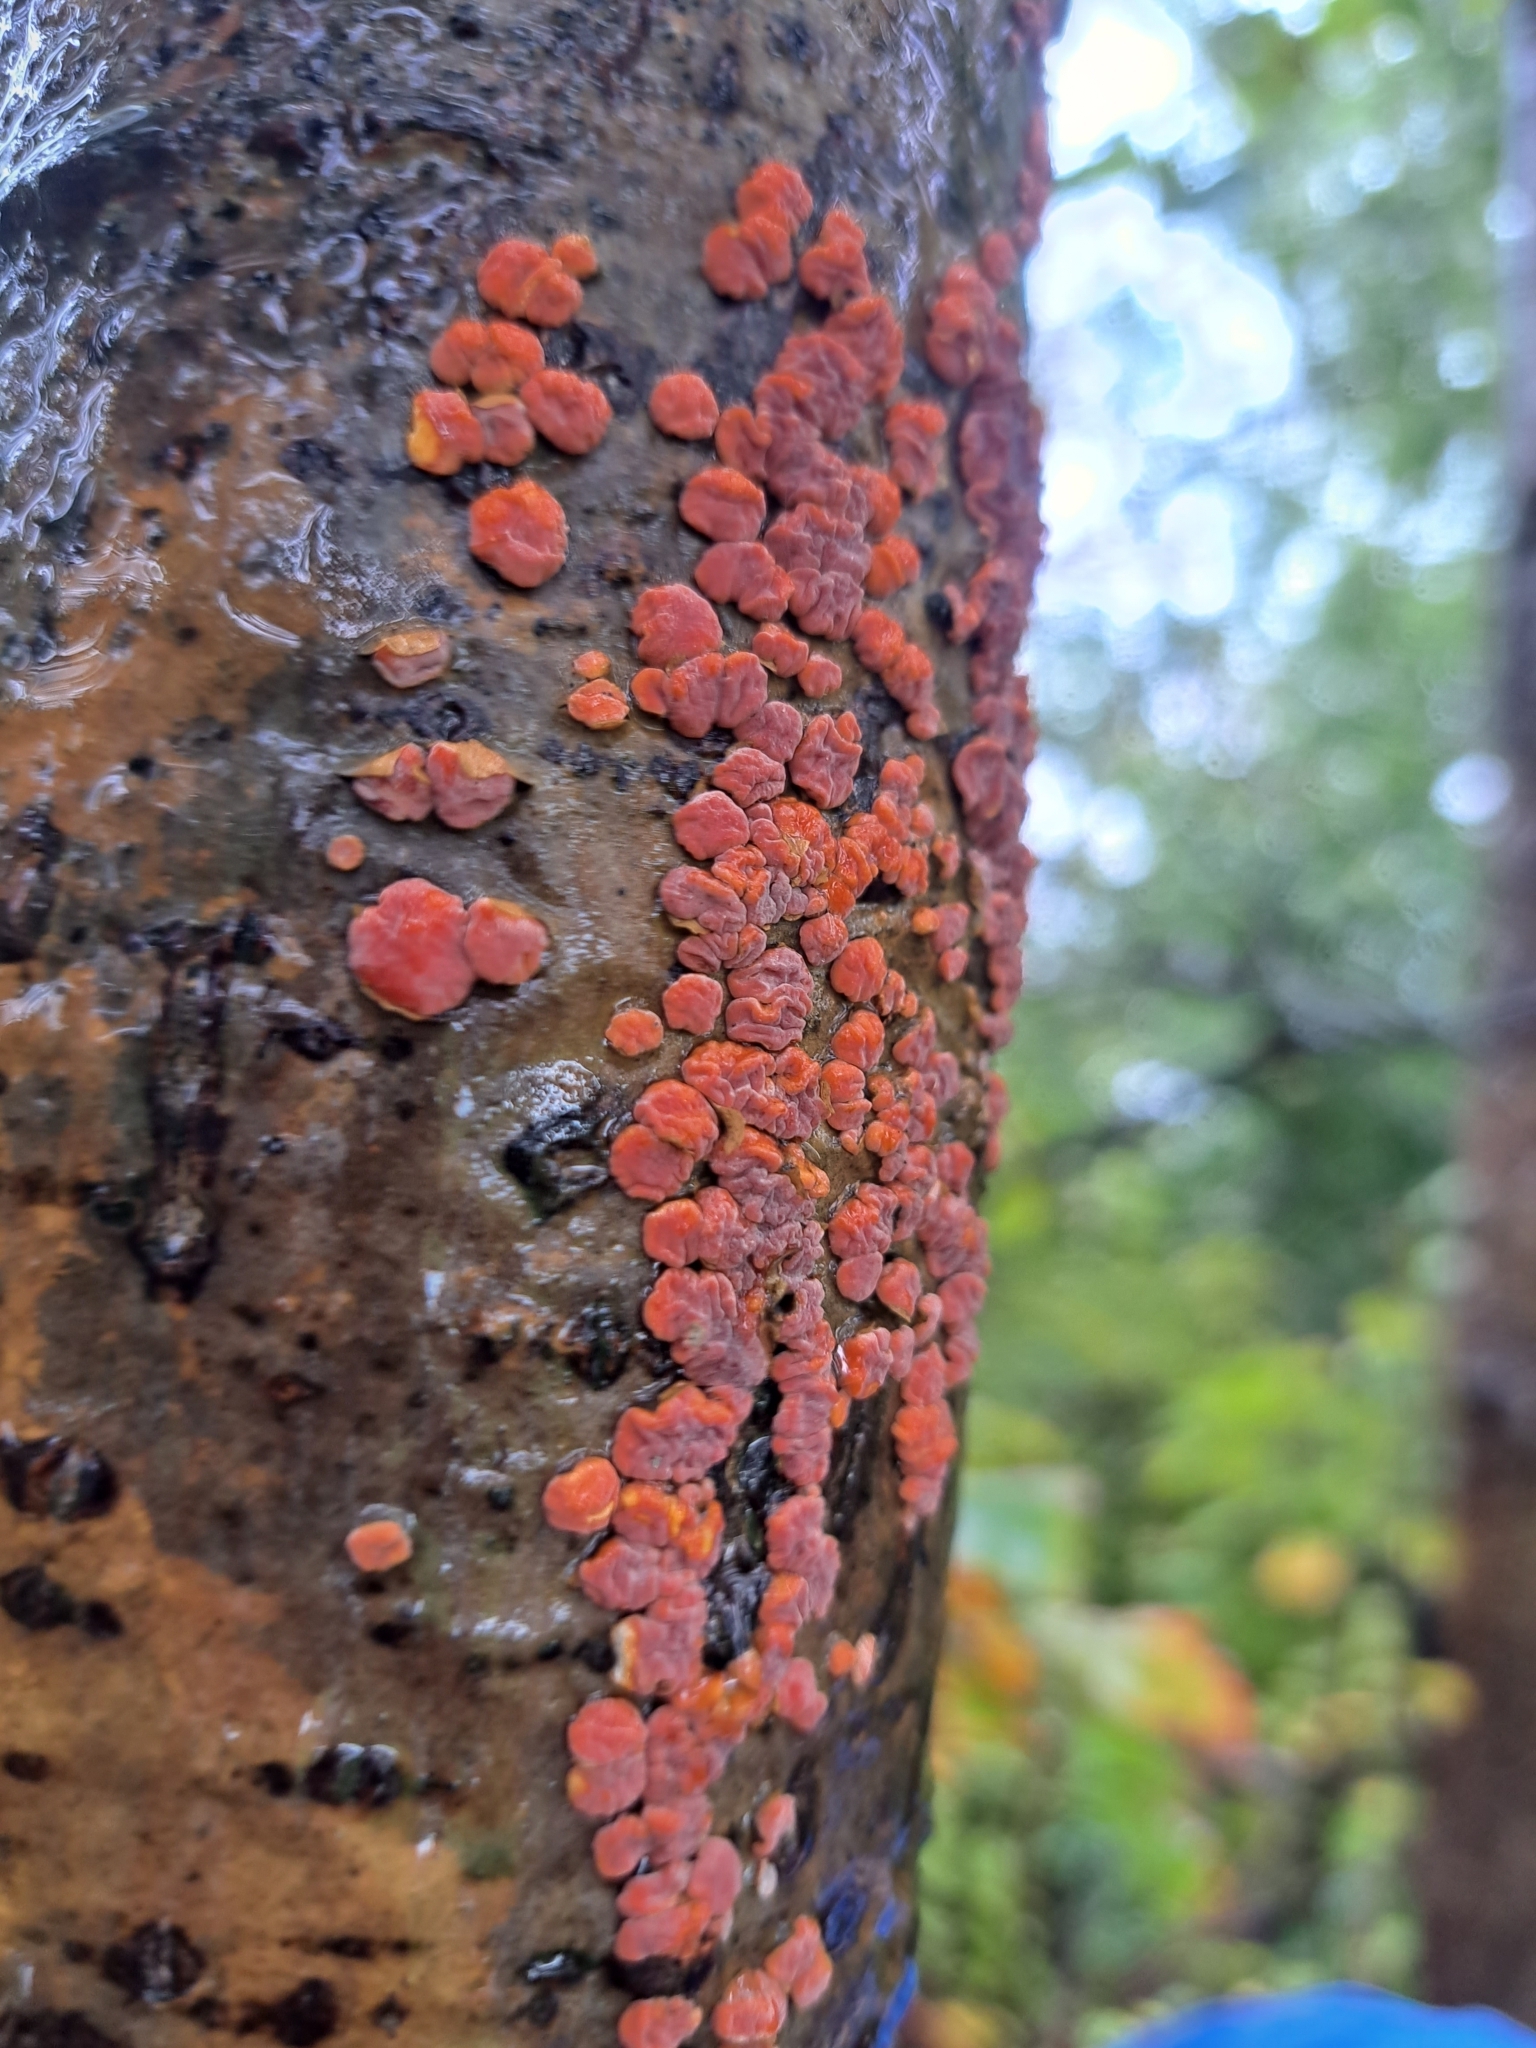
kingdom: Fungi
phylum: Basidiomycota
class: Agaricomycetes
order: Russulales
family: Peniophoraceae
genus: Peniophora
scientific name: Peniophora rufa
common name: Red tree brain fungus
